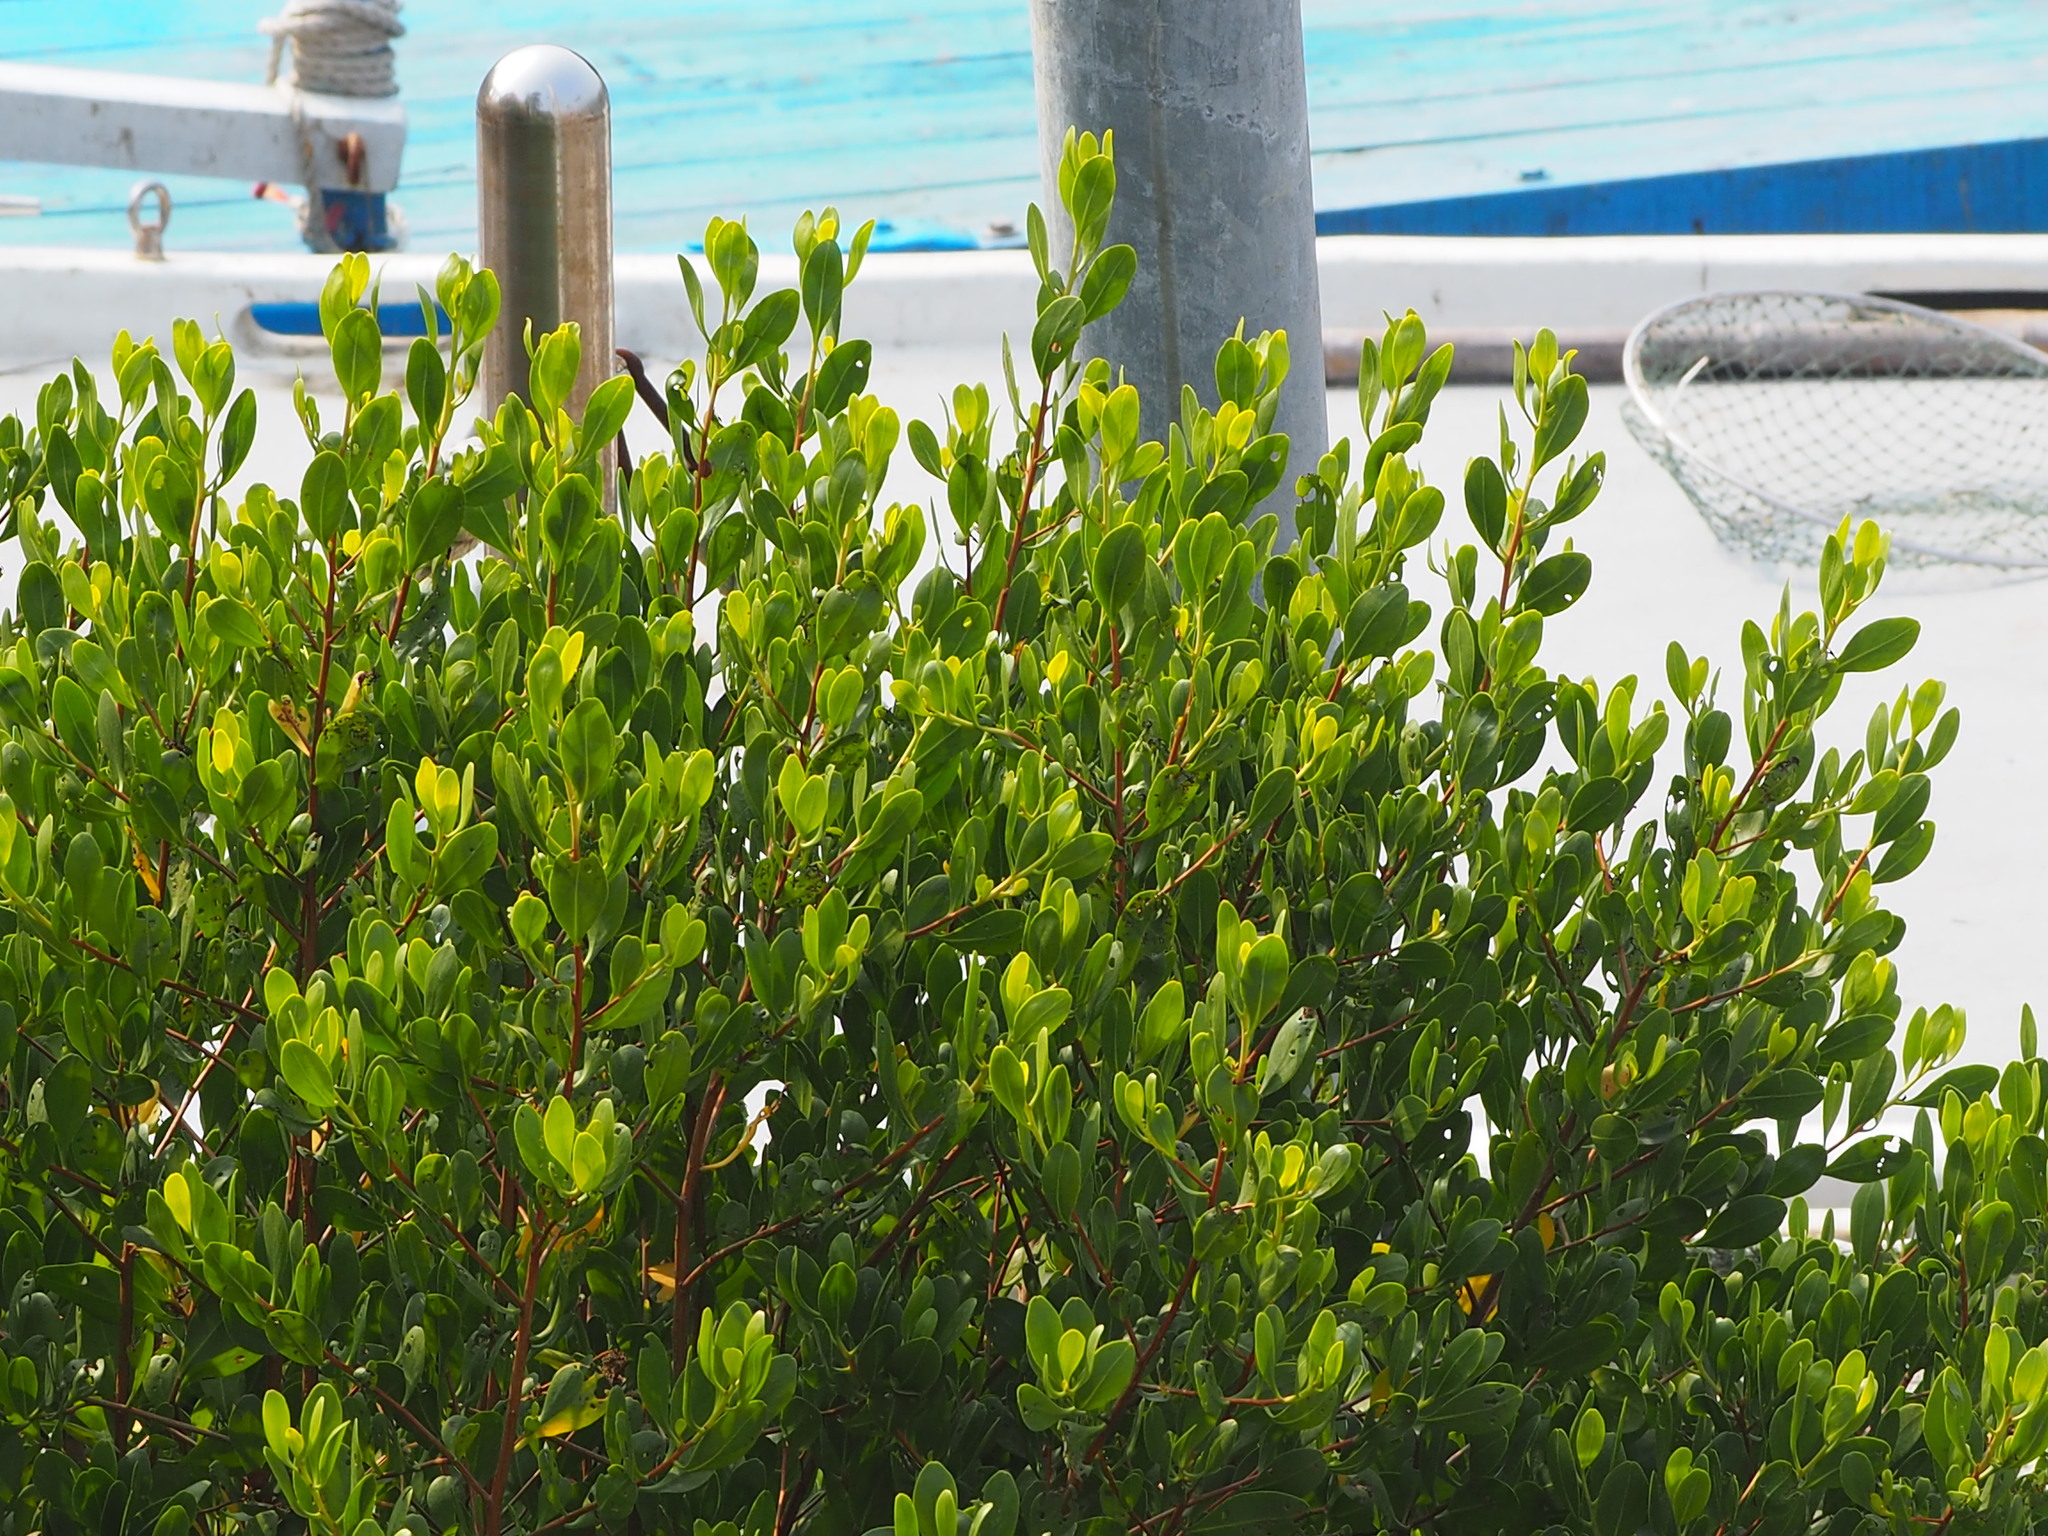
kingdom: Plantae
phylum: Tracheophyta
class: Magnoliopsida
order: Myrtales
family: Combretaceae
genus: Lumnitzera
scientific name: Lumnitzera racemosa
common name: White-flowered black mangrove
